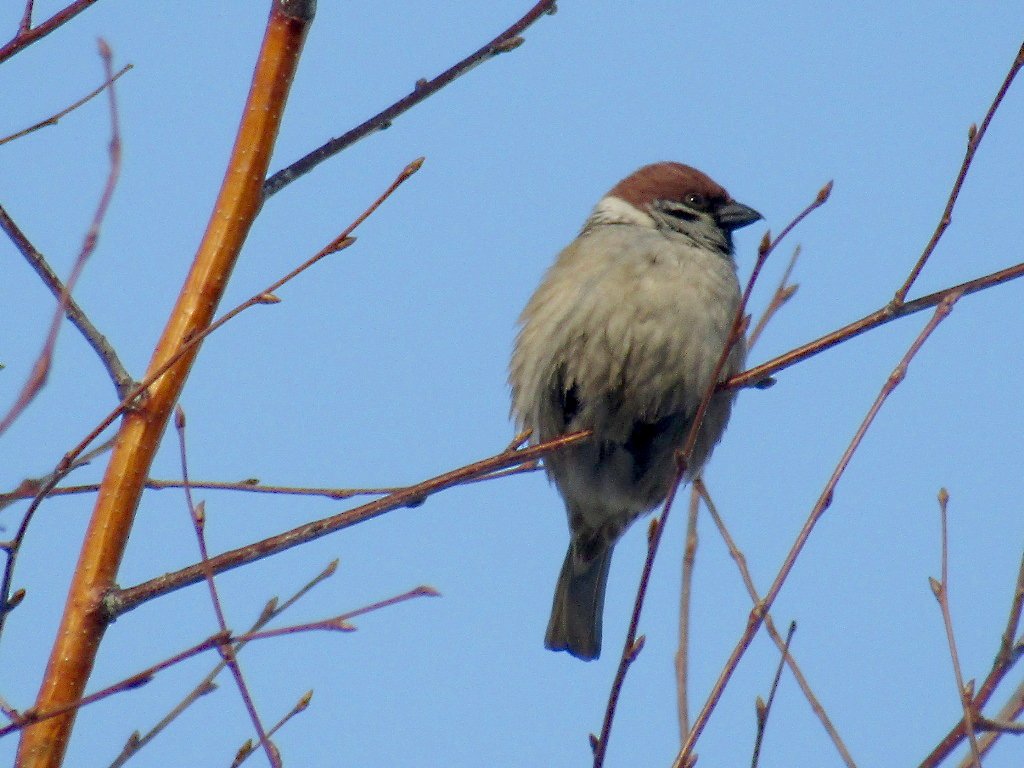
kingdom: Animalia
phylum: Chordata
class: Aves
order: Passeriformes
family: Passeridae
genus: Passer
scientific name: Passer montanus
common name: Eurasian tree sparrow
